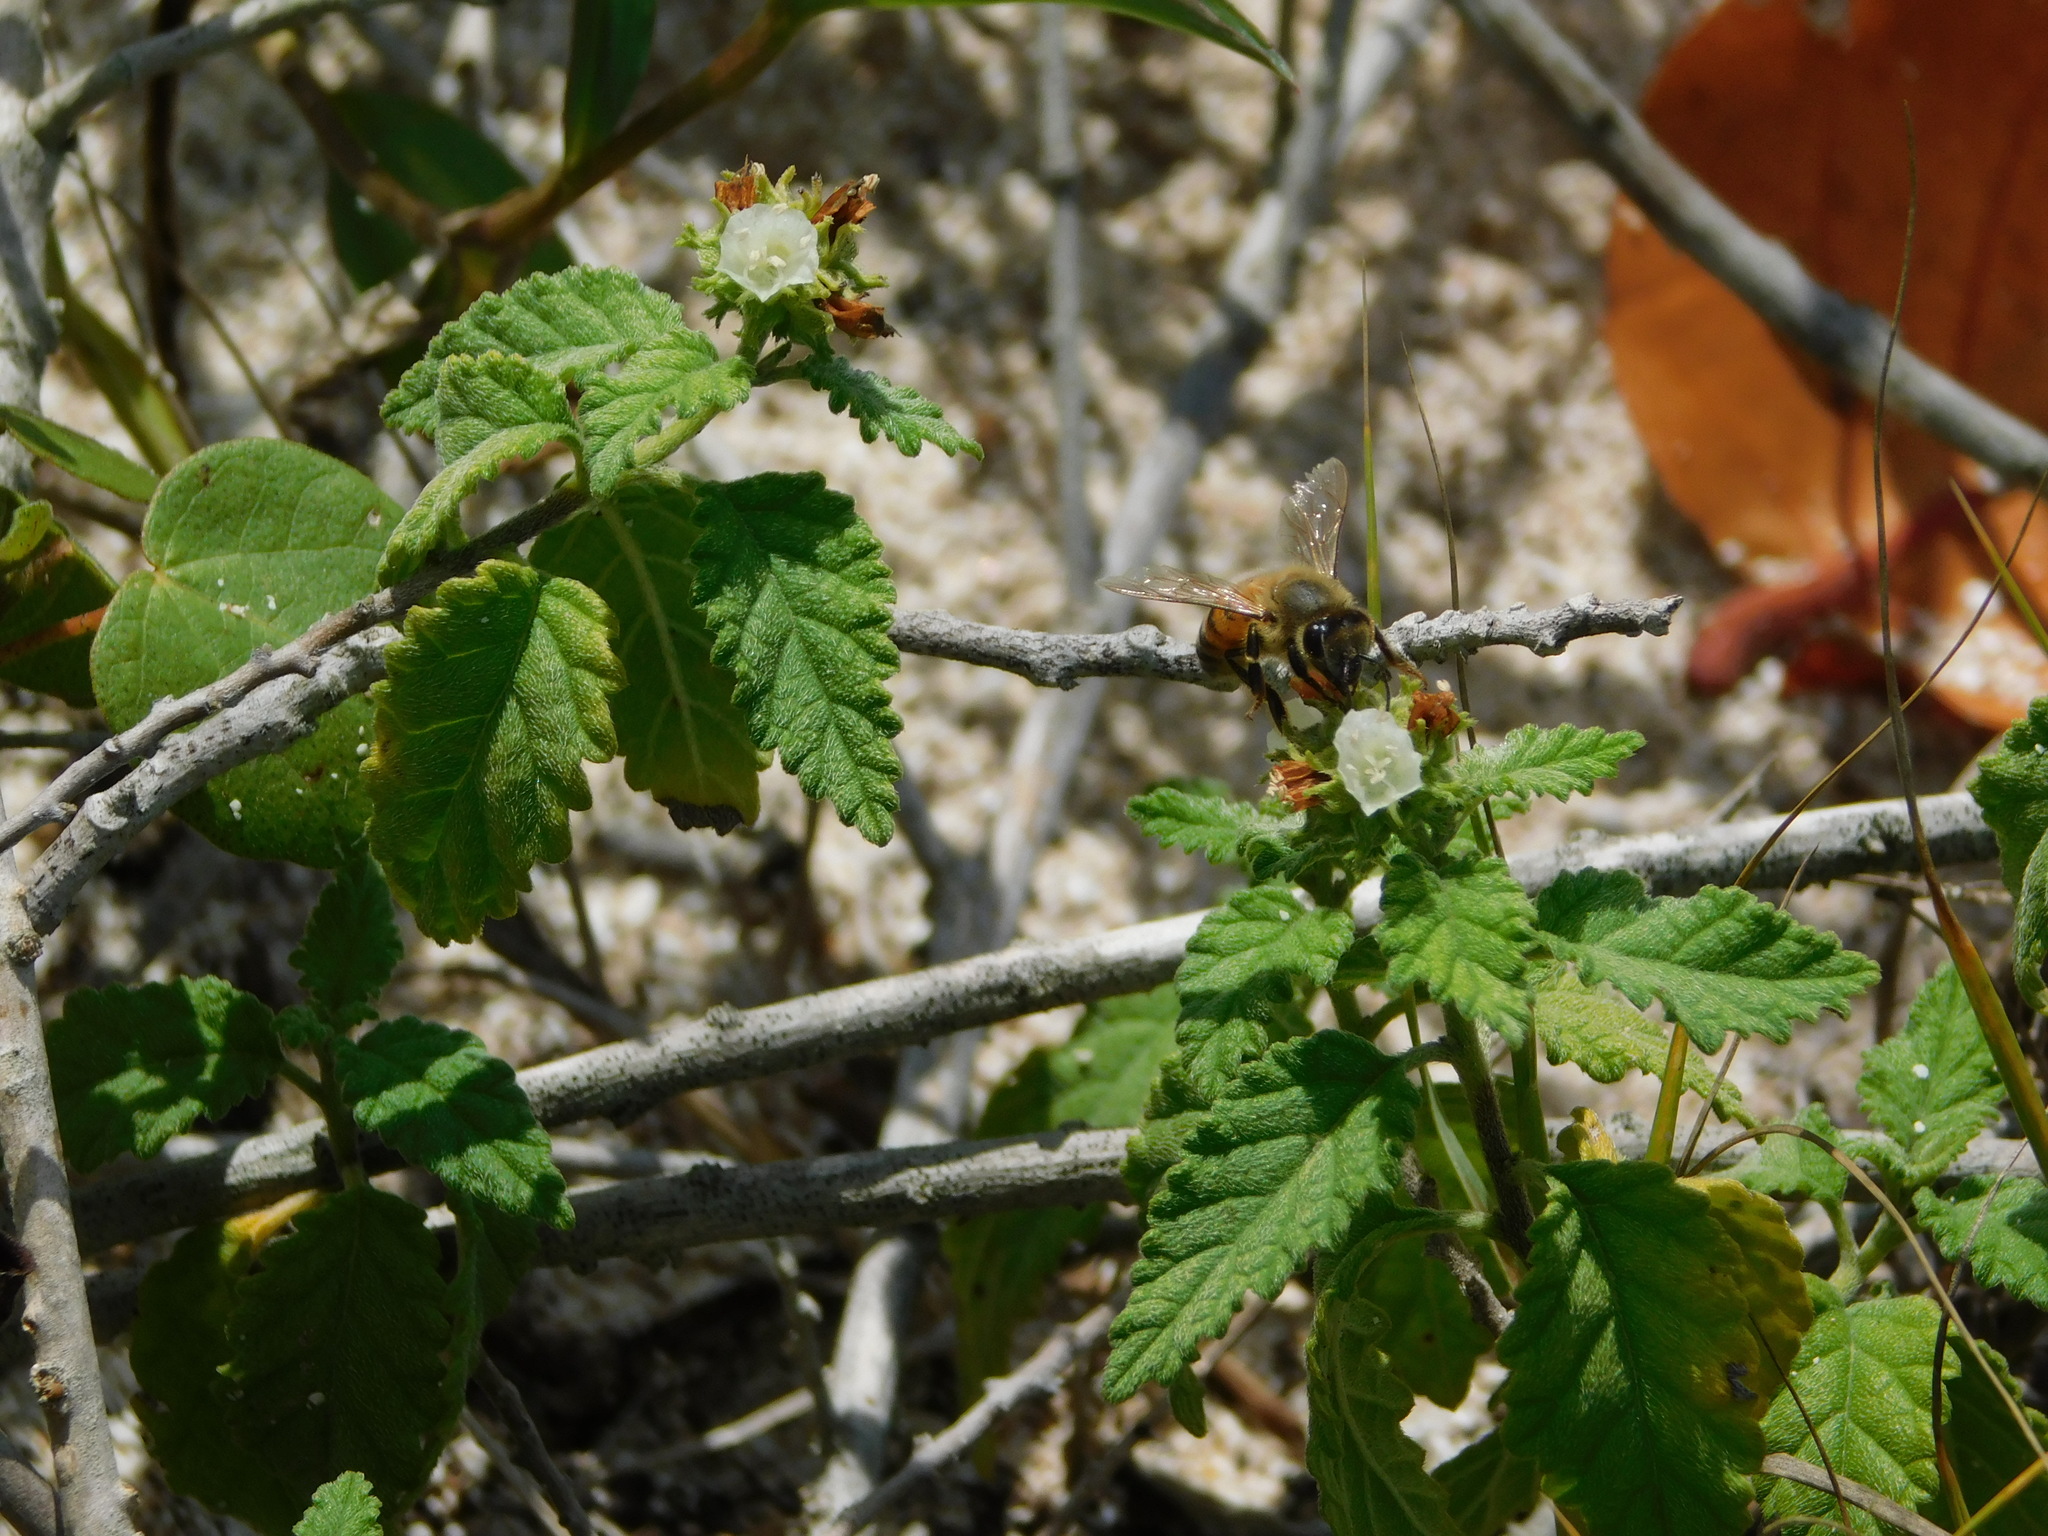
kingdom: Animalia
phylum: Arthropoda
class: Insecta
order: Hymenoptera
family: Apidae
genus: Apis
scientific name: Apis mellifera
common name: Honey bee
